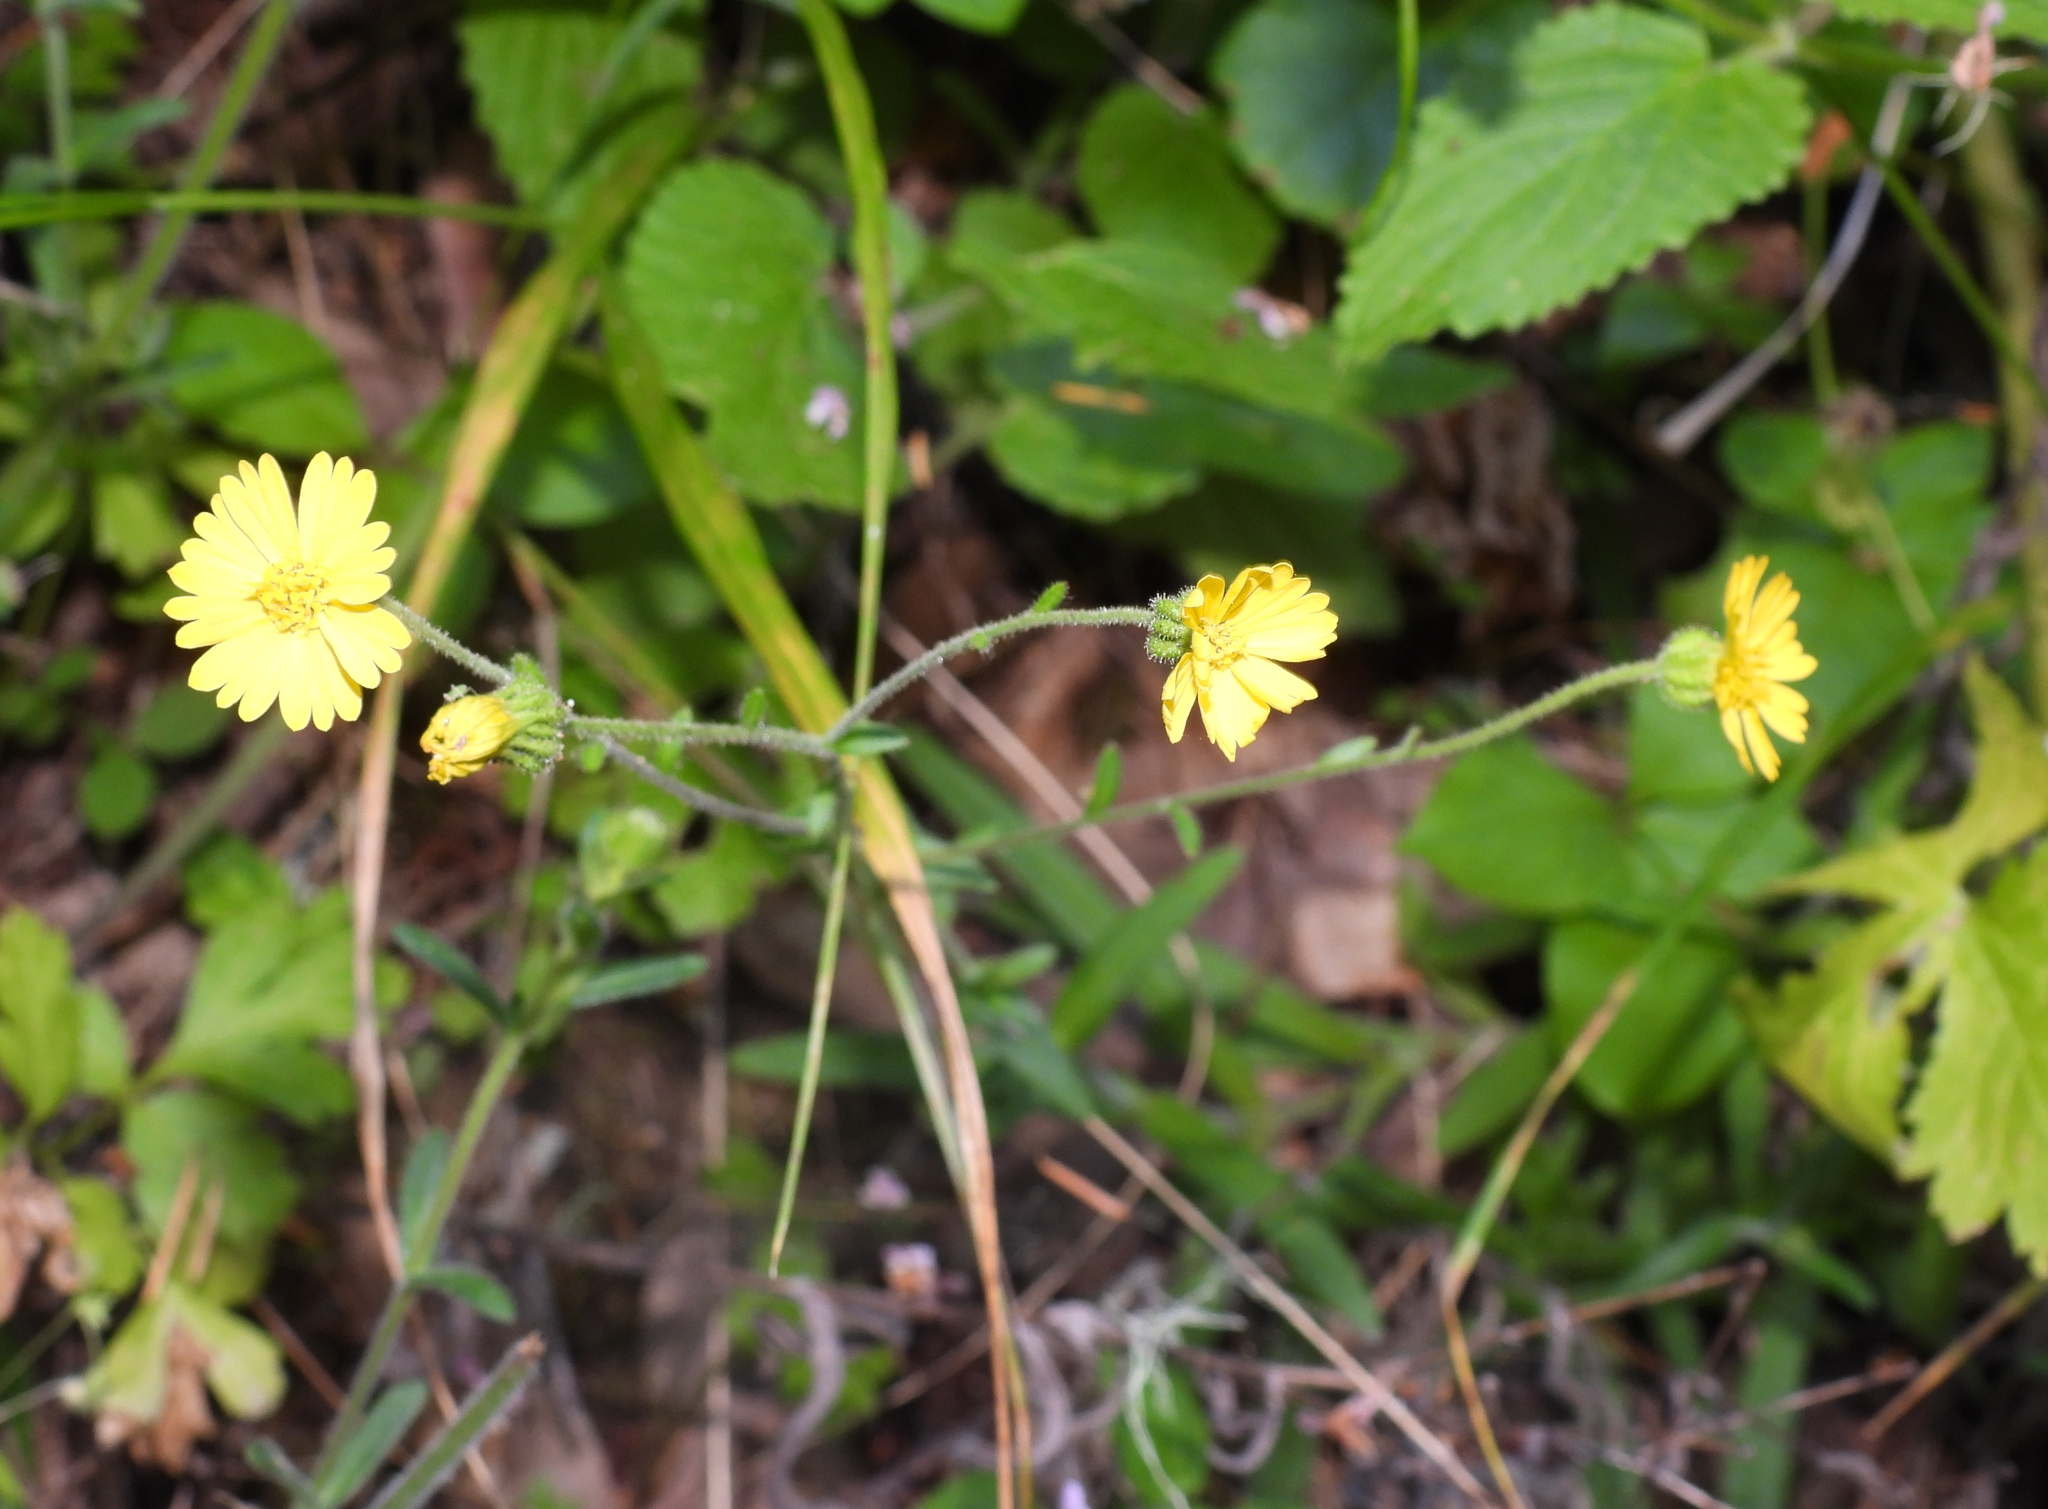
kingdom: Plantae
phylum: Tracheophyta
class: Magnoliopsida
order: Asterales
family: Asteraceae
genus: Anisocarpus
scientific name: Anisocarpus madioides
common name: Woodland madia
